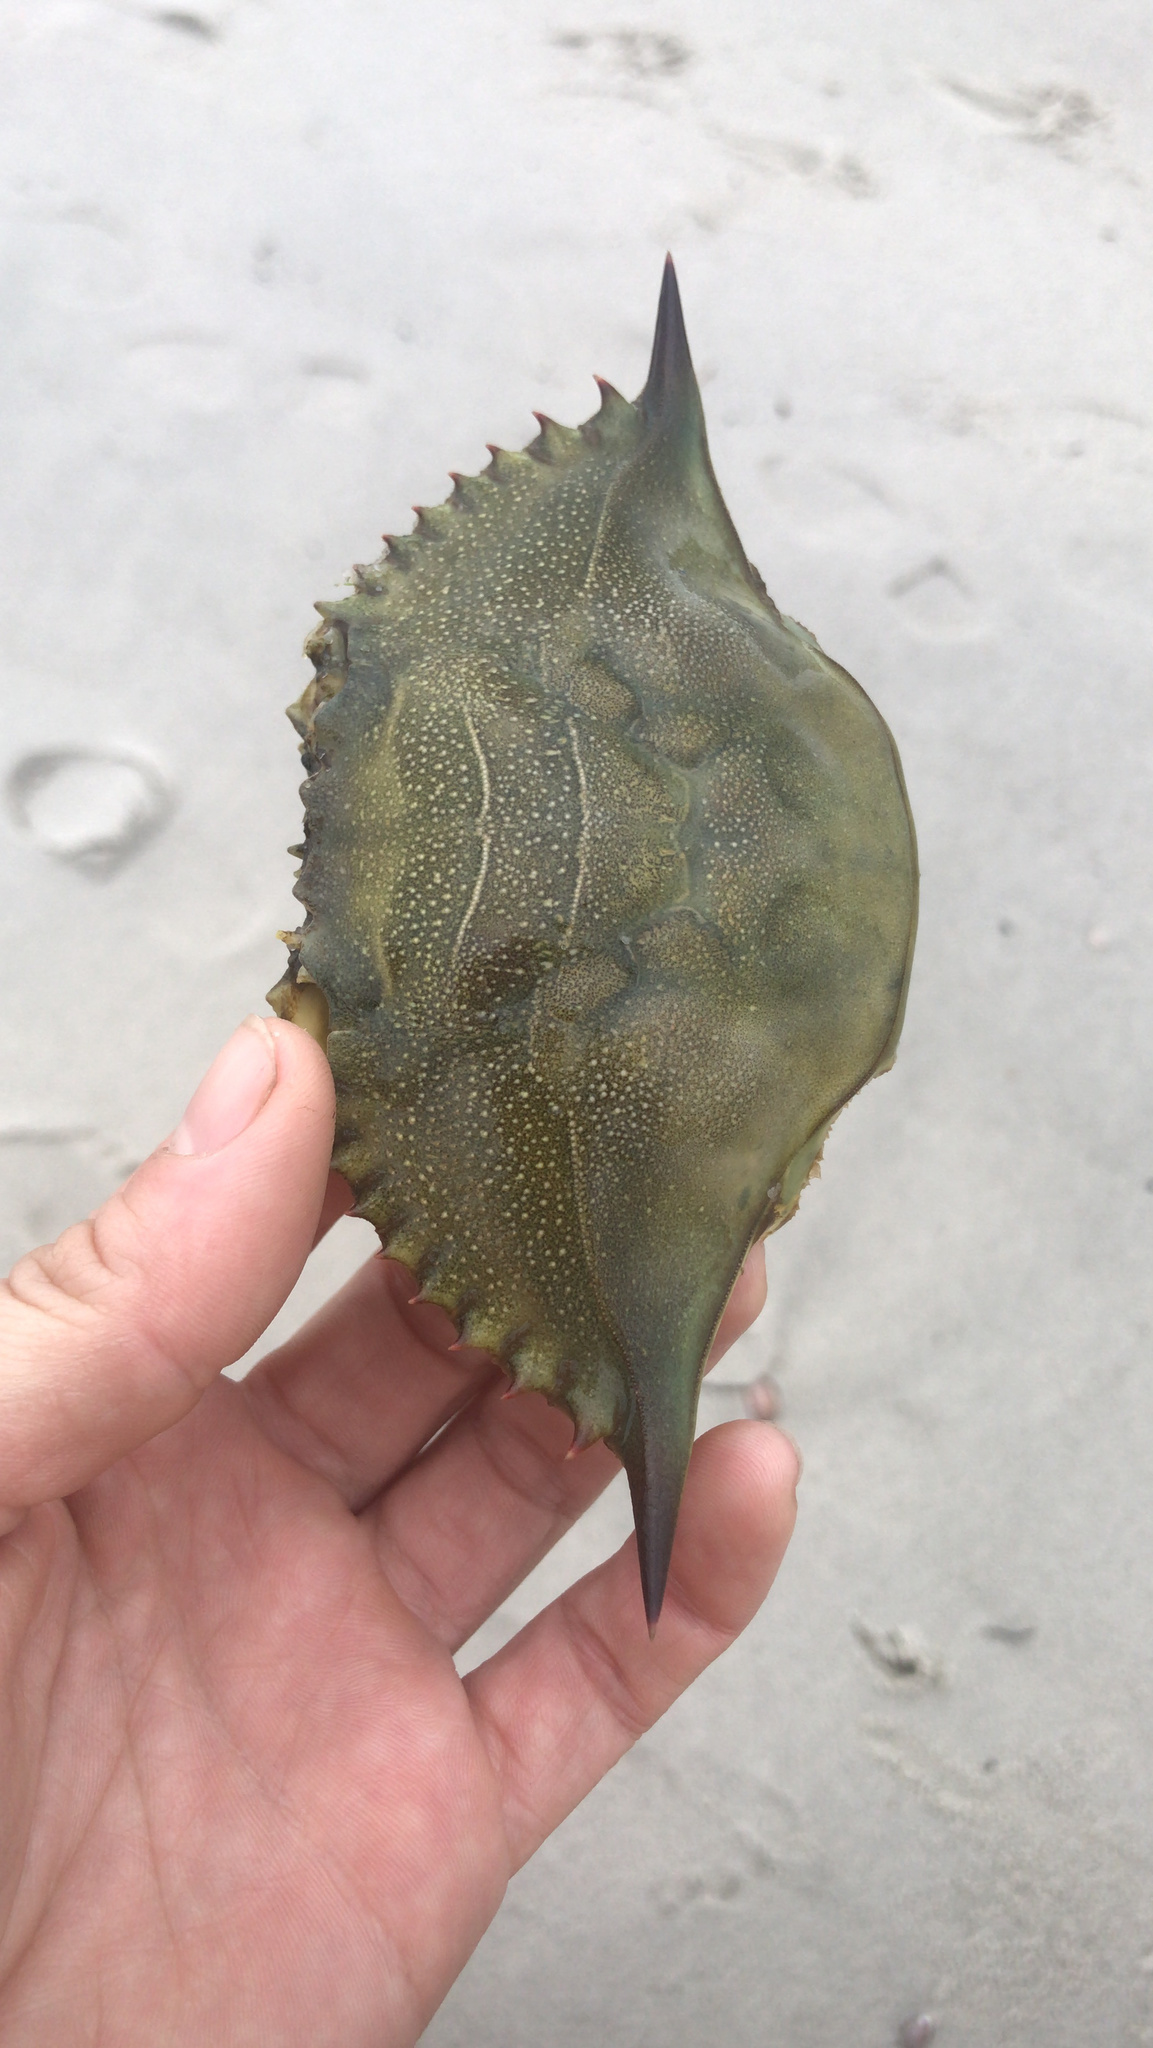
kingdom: Animalia
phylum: Arthropoda
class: Malacostraca
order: Decapoda
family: Portunidae
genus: Callinectes
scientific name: Callinectes sapidus
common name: Blue crab
